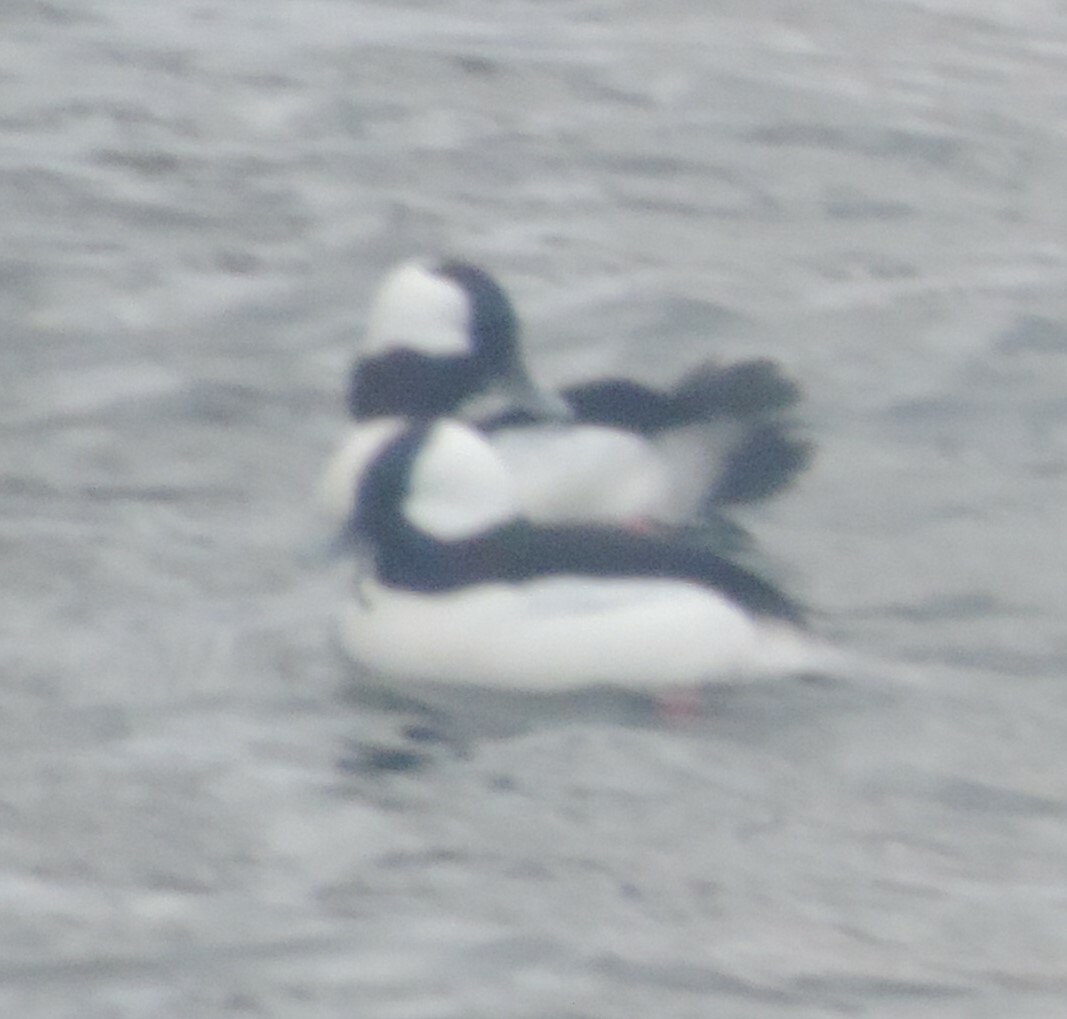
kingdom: Animalia
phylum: Chordata
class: Aves
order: Anseriformes
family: Anatidae
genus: Bucephala
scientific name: Bucephala albeola
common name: Bufflehead
